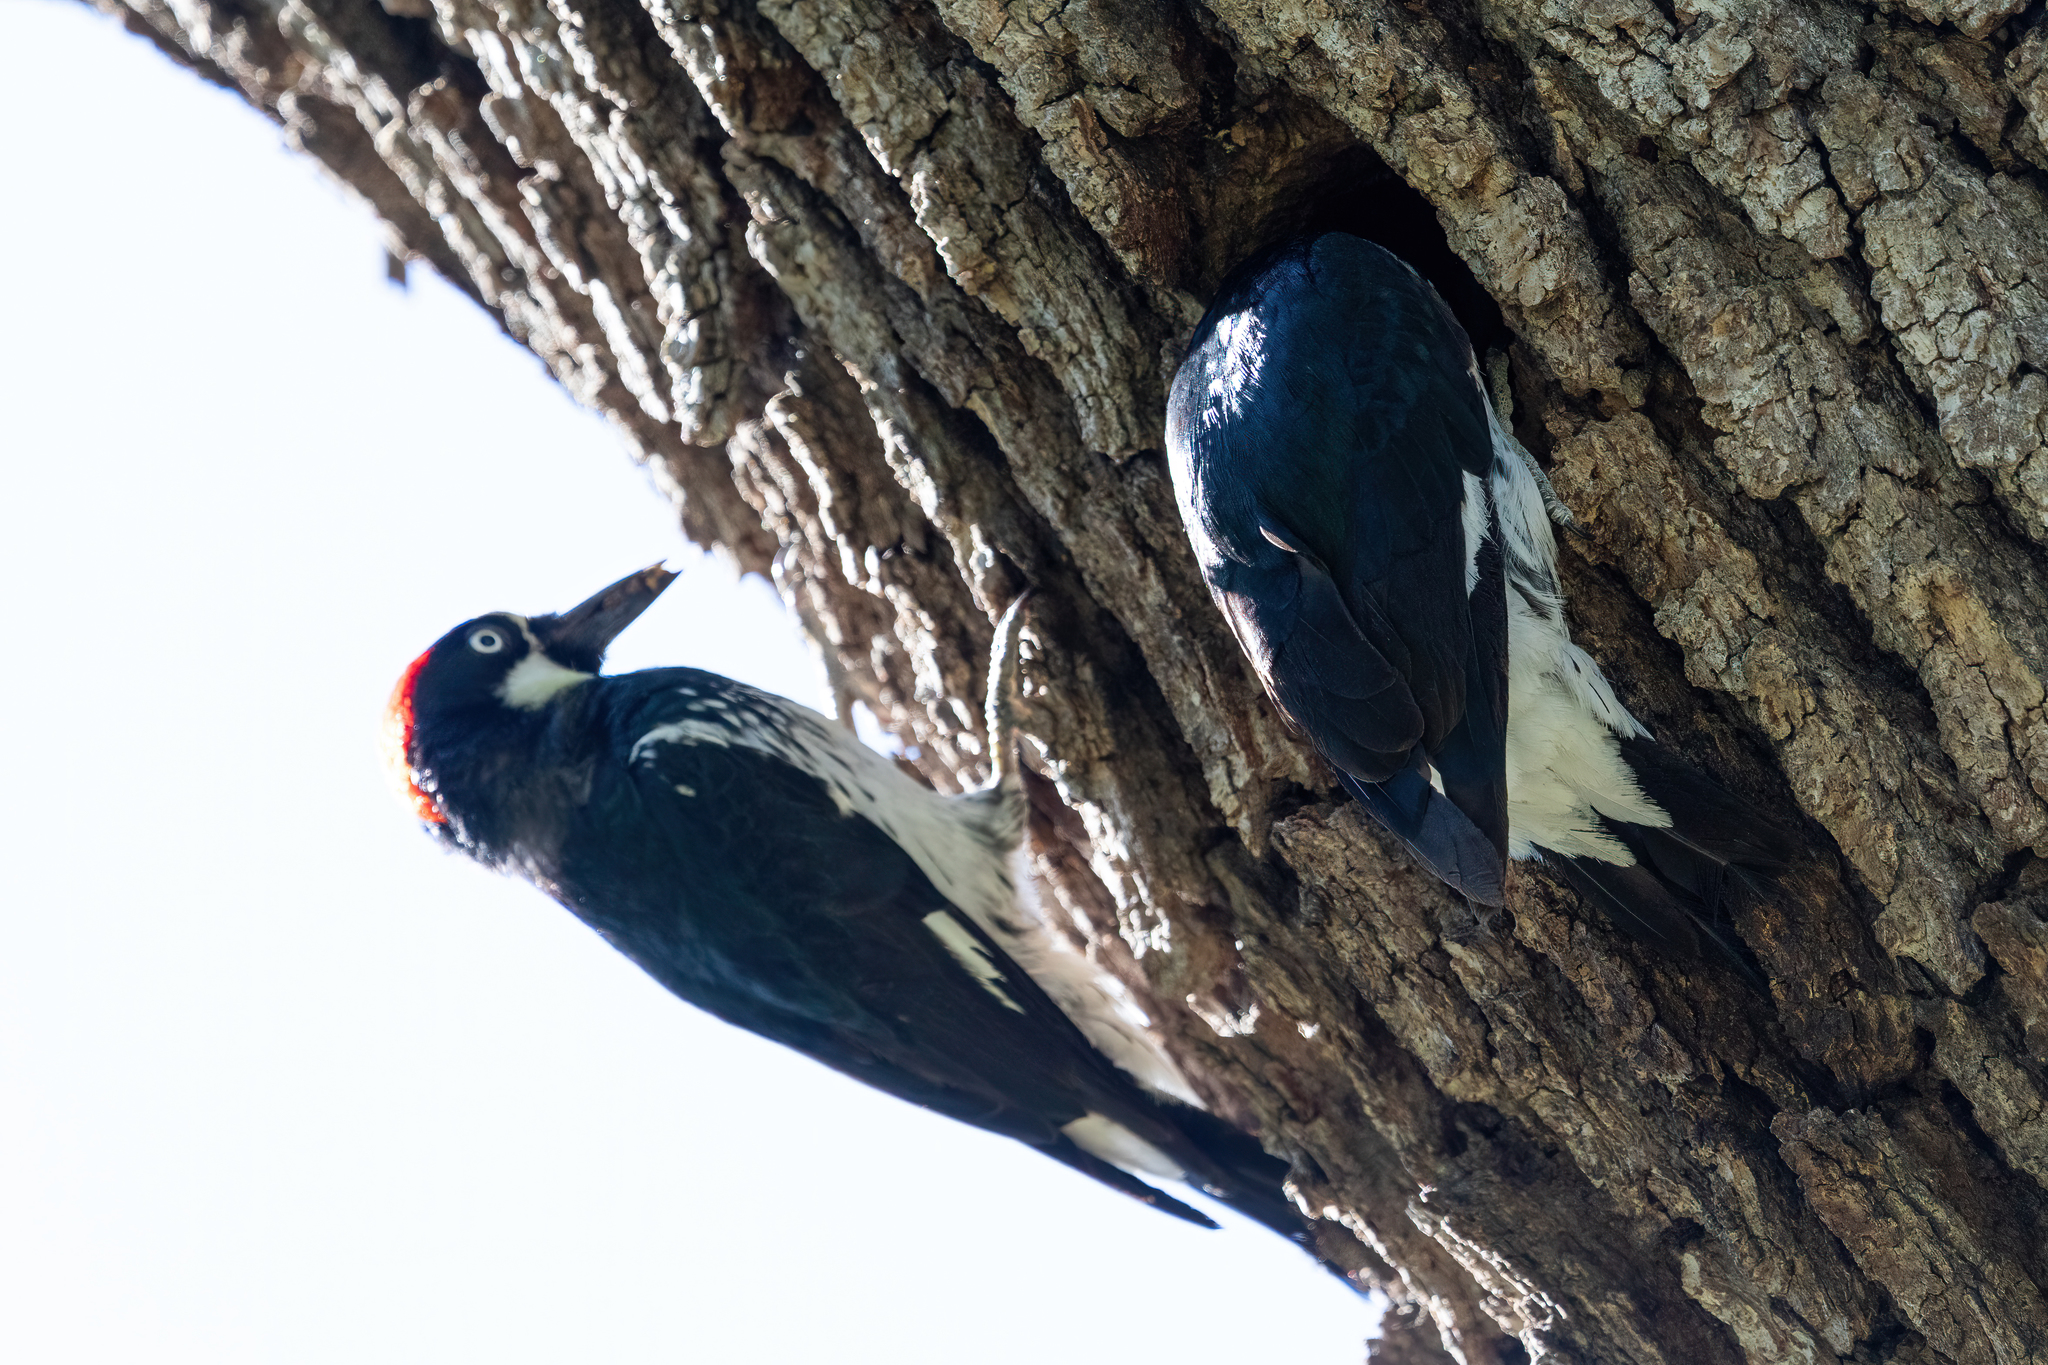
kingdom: Animalia
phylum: Chordata
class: Aves
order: Piciformes
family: Picidae
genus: Melanerpes
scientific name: Melanerpes formicivorus
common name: Acorn woodpecker
